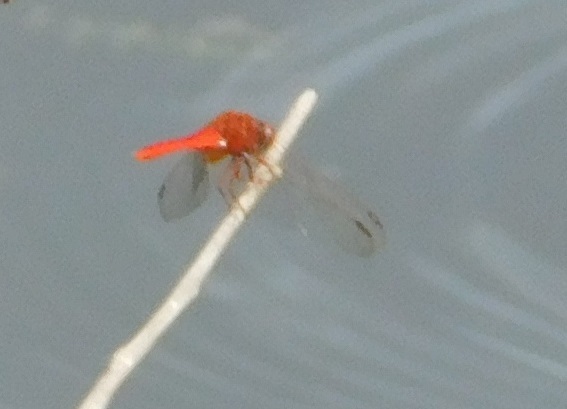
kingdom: Animalia
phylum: Arthropoda
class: Insecta
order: Odonata
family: Libellulidae
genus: Crocothemis
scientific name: Crocothemis servilia
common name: Scarlet skimmer
